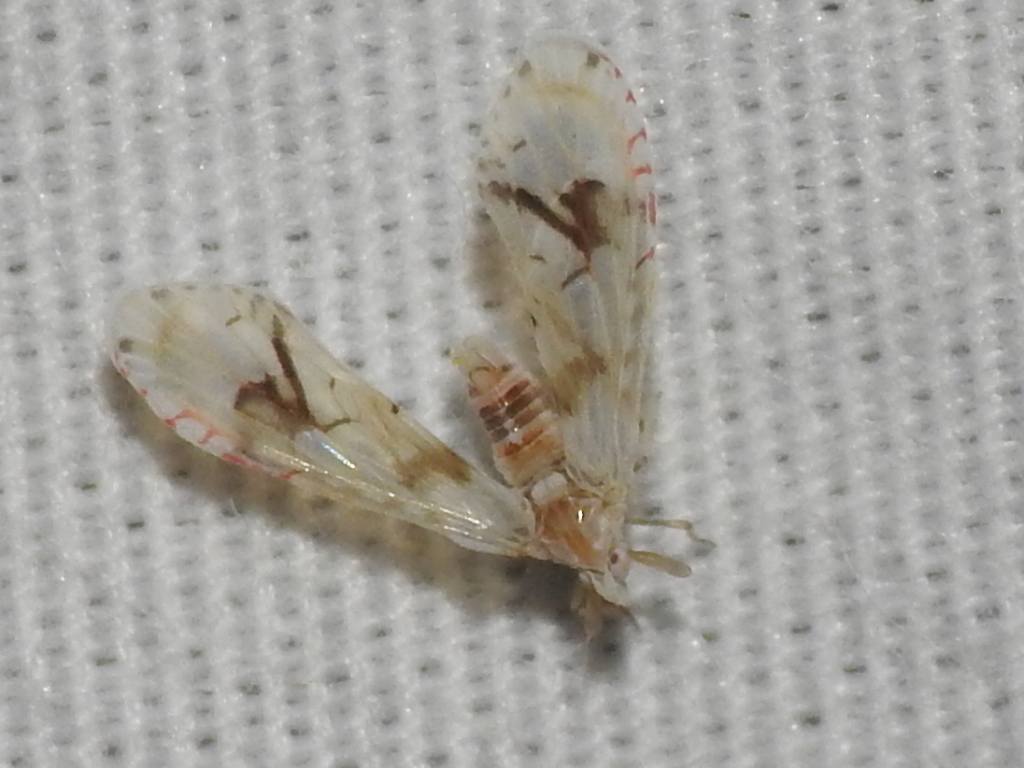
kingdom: Animalia
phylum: Arthropoda
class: Insecta
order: Hemiptera
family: Derbidae
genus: Anotia
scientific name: Anotia robertsonii
